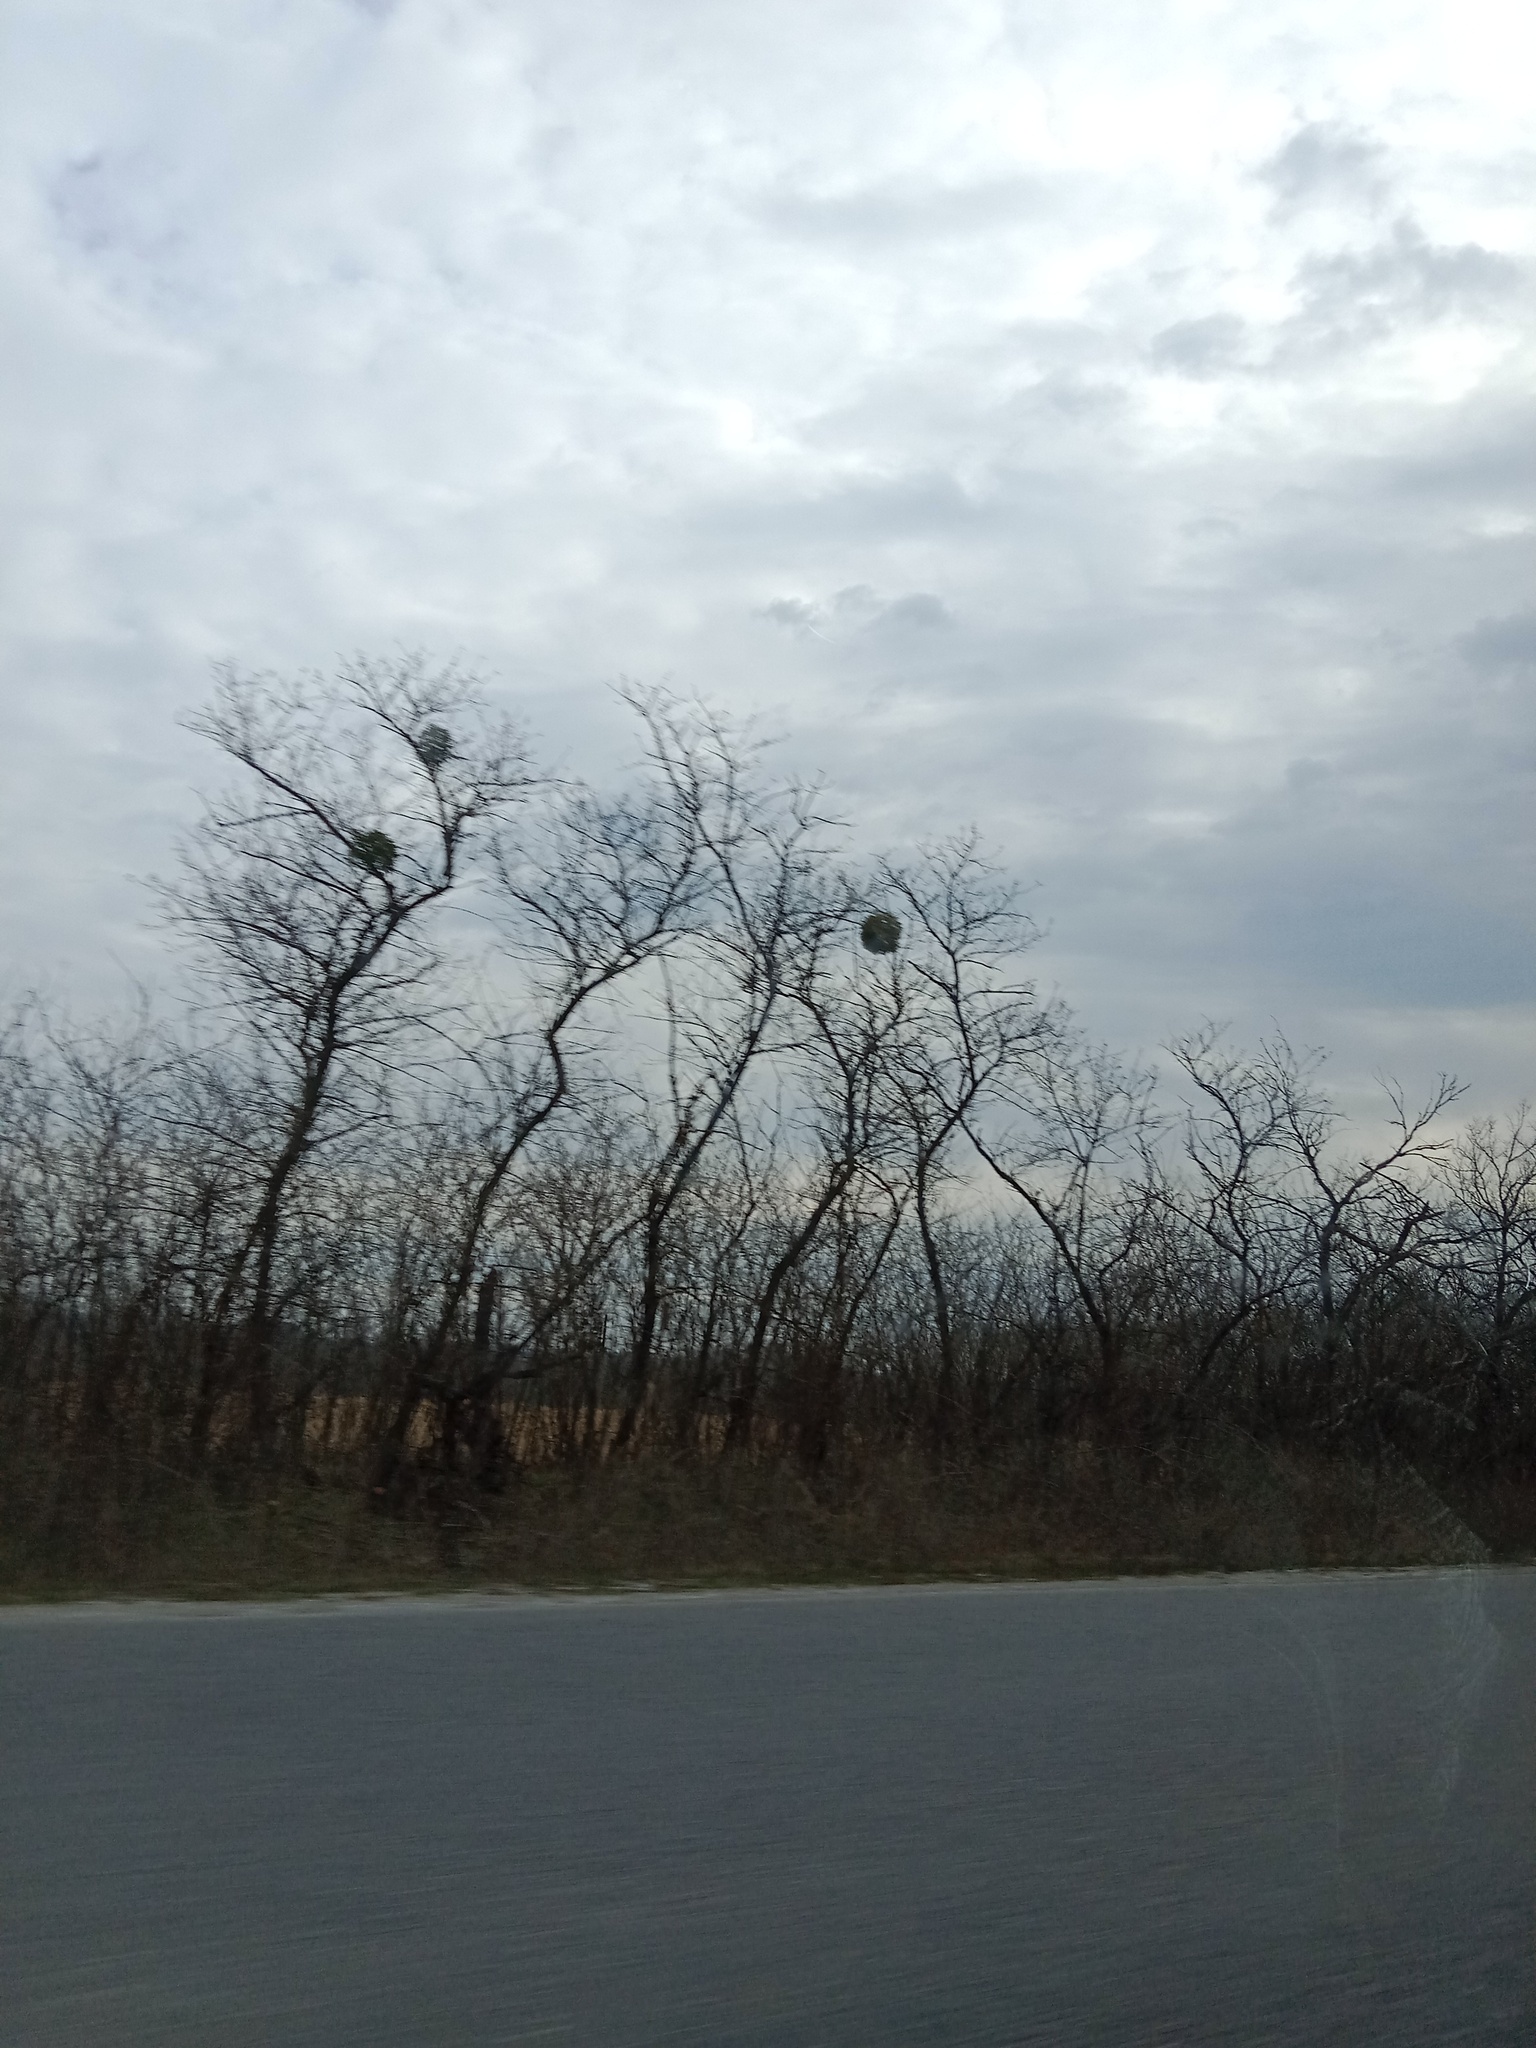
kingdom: Plantae
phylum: Tracheophyta
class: Magnoliopsida
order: Santalales
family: Viscaceae
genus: Viscum
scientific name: Viscum album
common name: Mistletoe
